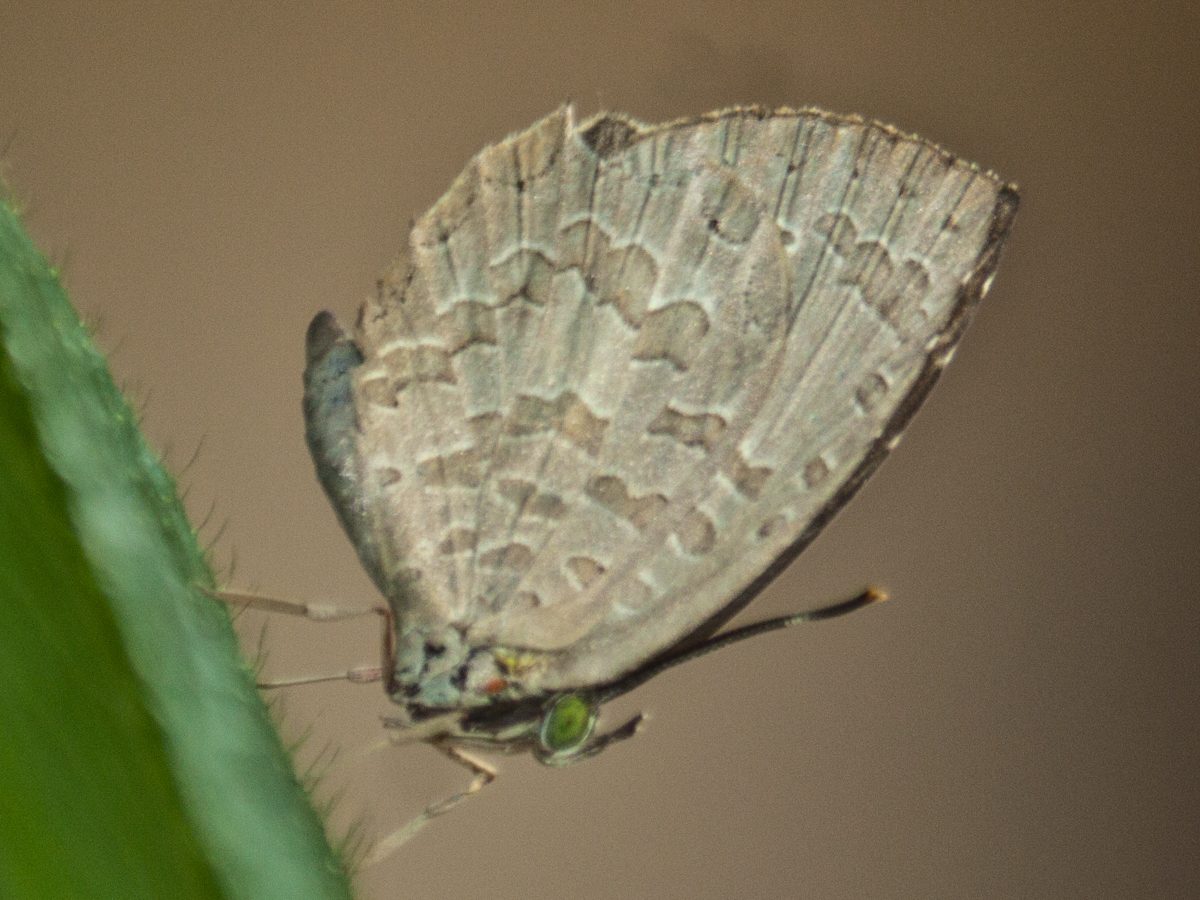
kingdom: Animalia
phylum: Arthropoda
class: Insecta
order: Lepidoptera
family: Lycaenidae
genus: Miletus
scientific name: Miletus chinensis
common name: Common brownie
